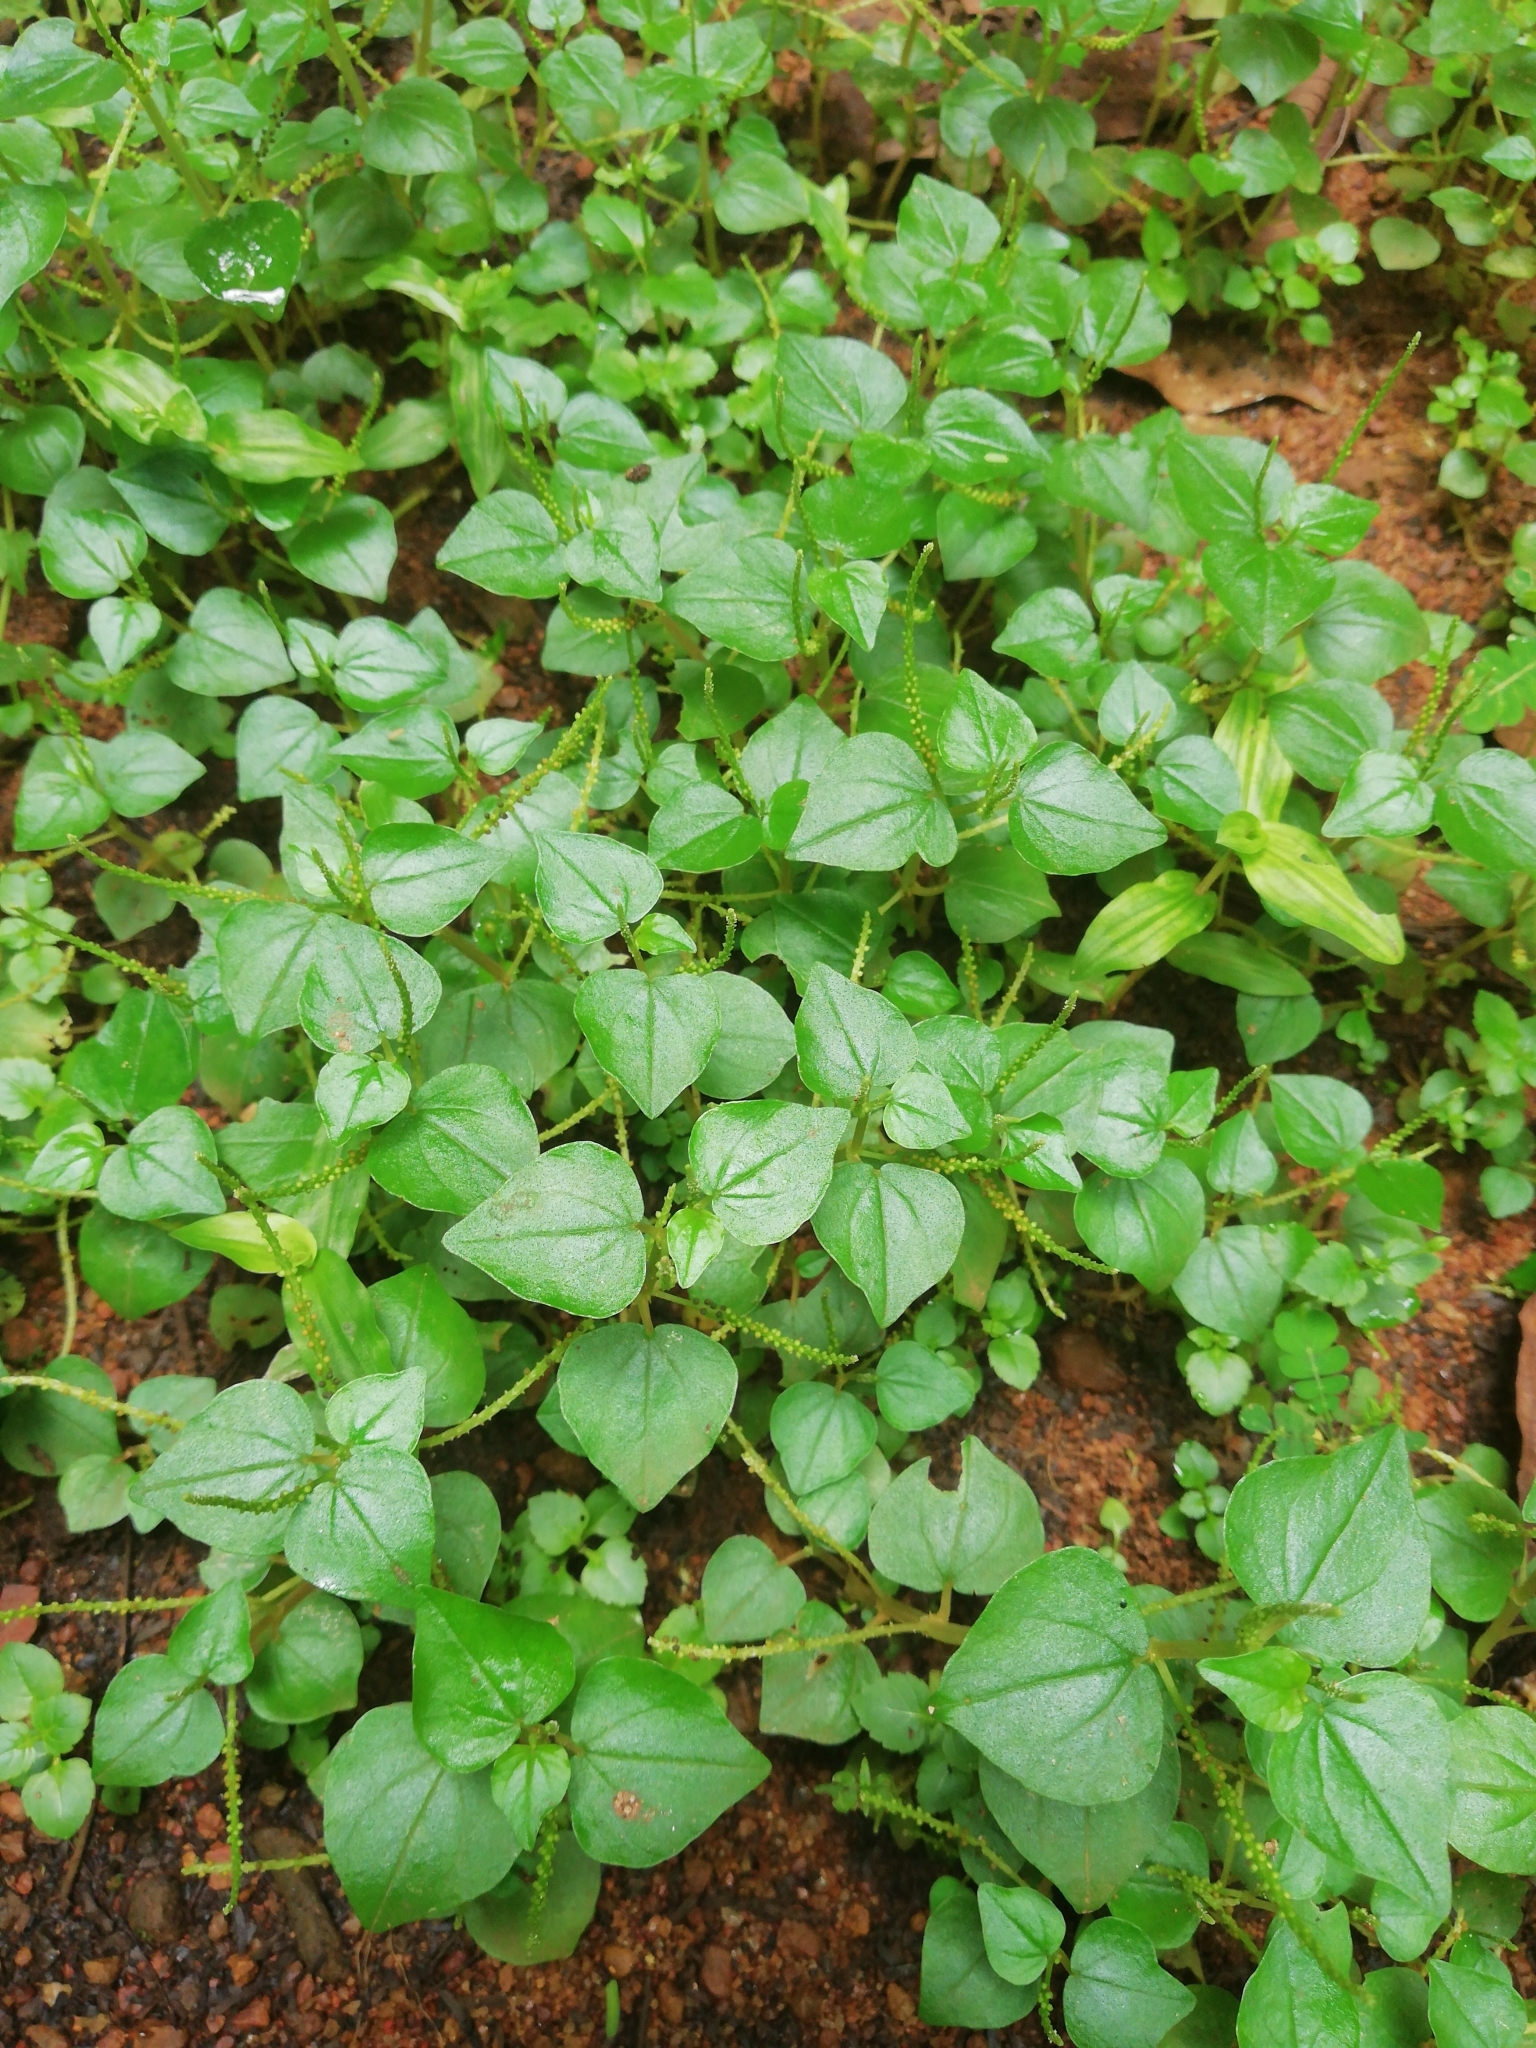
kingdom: Plantae
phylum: Tracheophyta
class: Magnoliopsida
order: Piperales
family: Piperaceae
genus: Peperomia
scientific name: Peperomia pellucida
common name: Man to man
